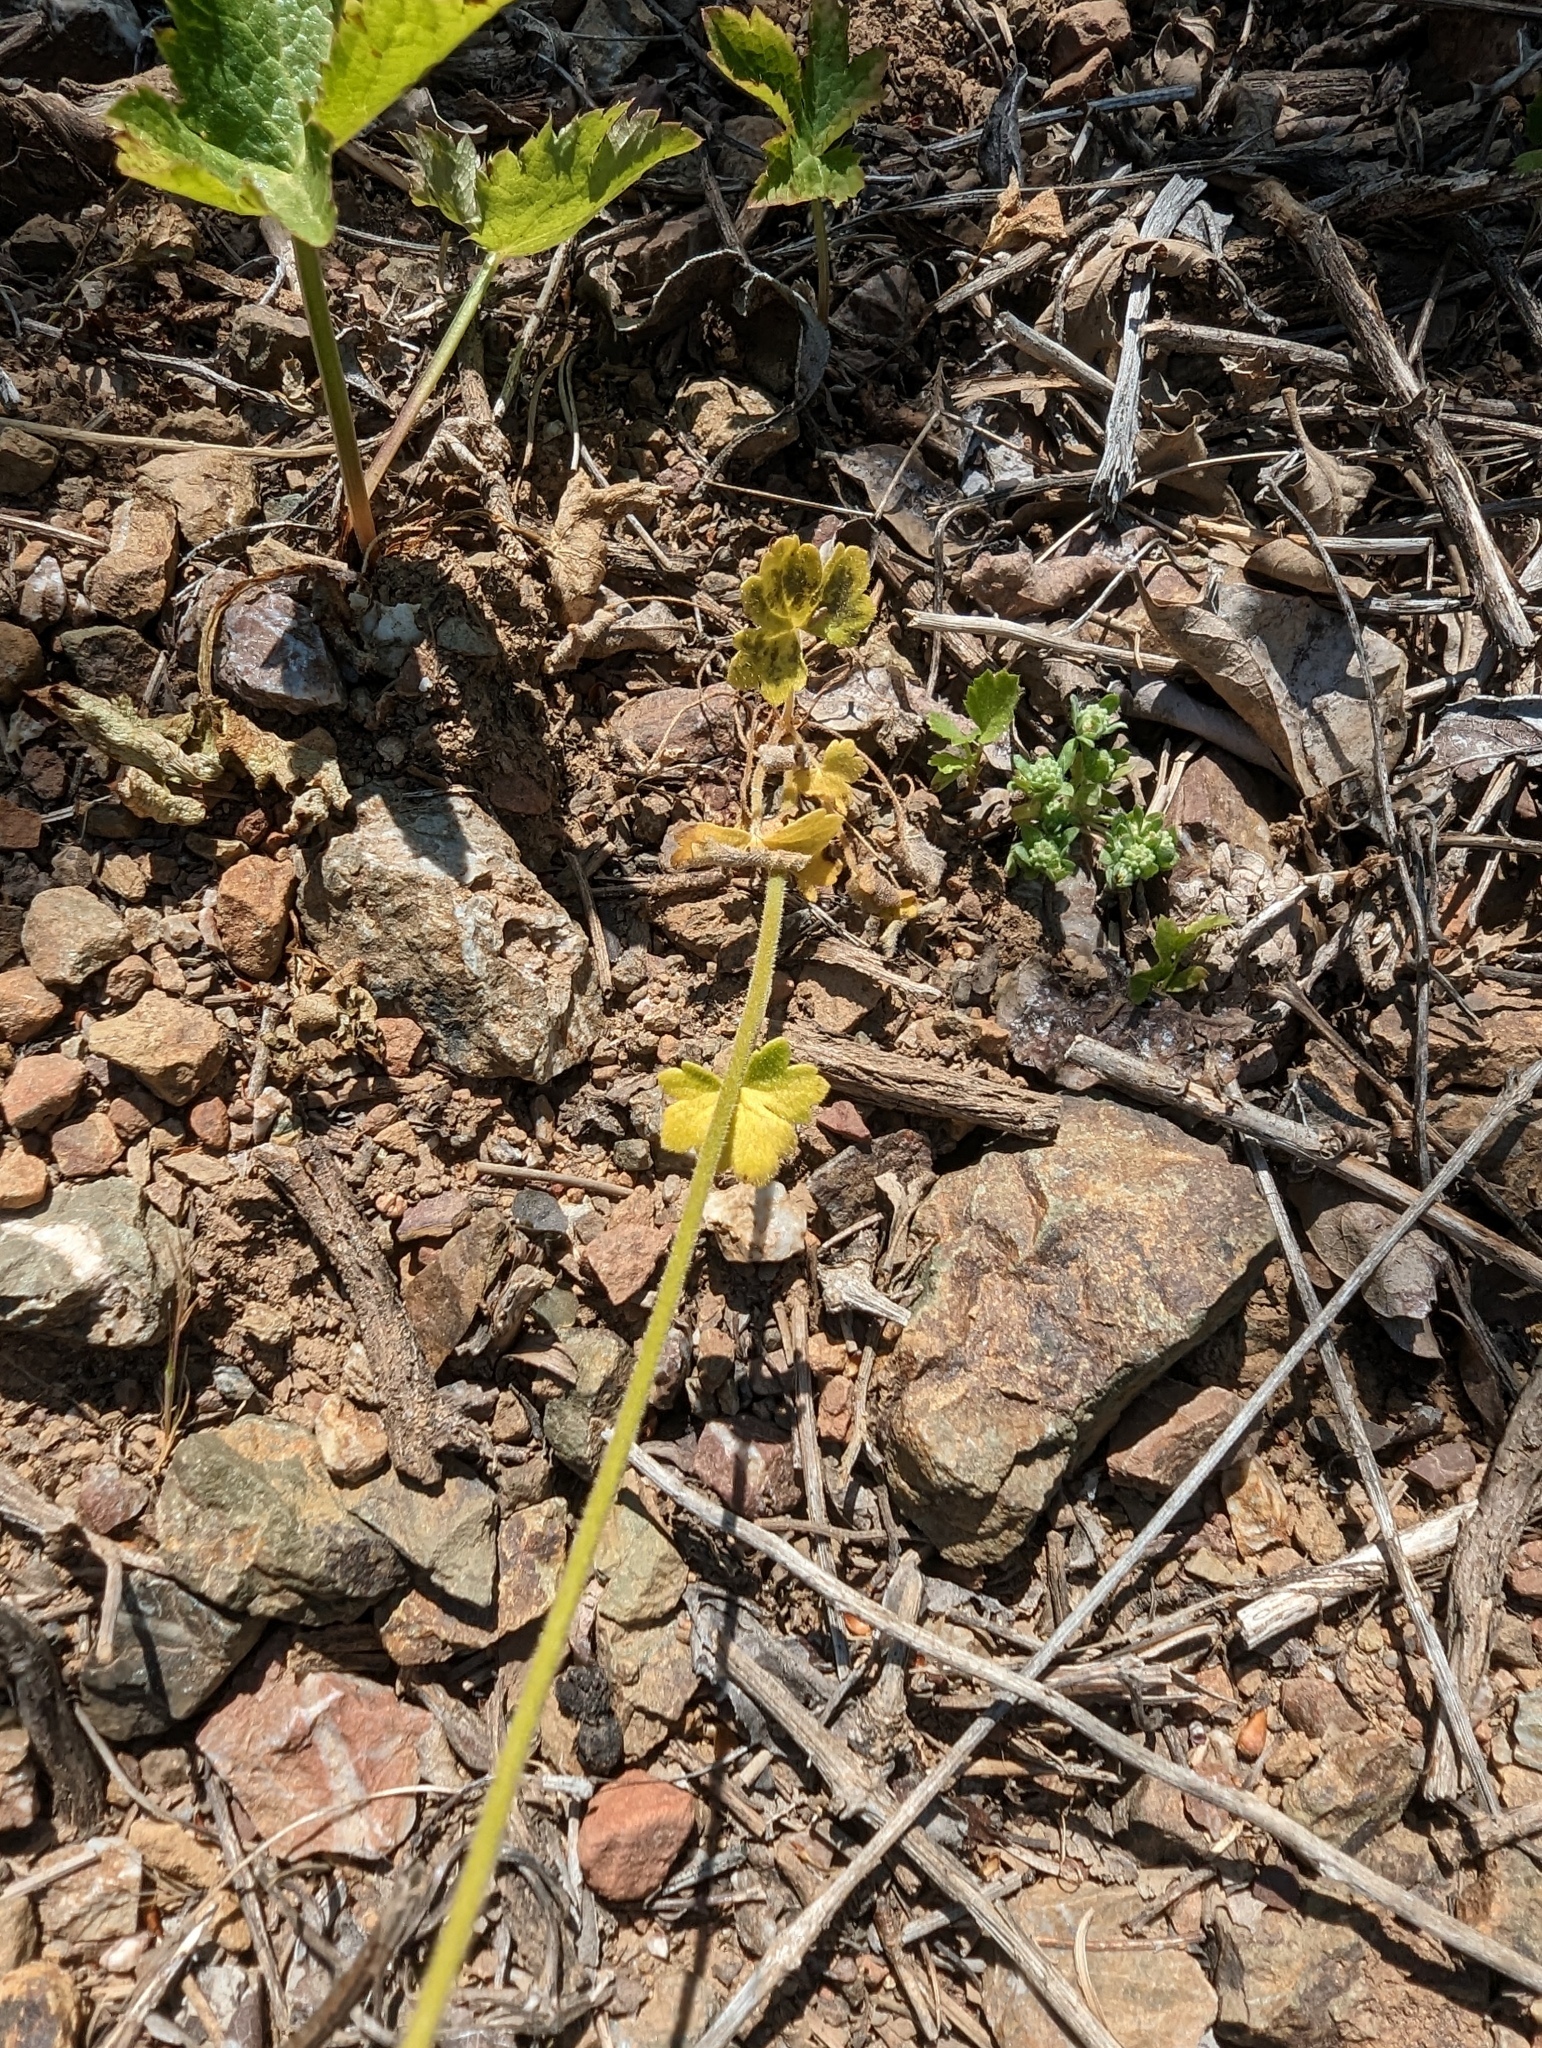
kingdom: Plantae
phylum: Tracheophyta
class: Magnoliopsida
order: Saxifragales
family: Saxifragaceae
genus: Lithophragma
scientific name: Lithophragma affine
